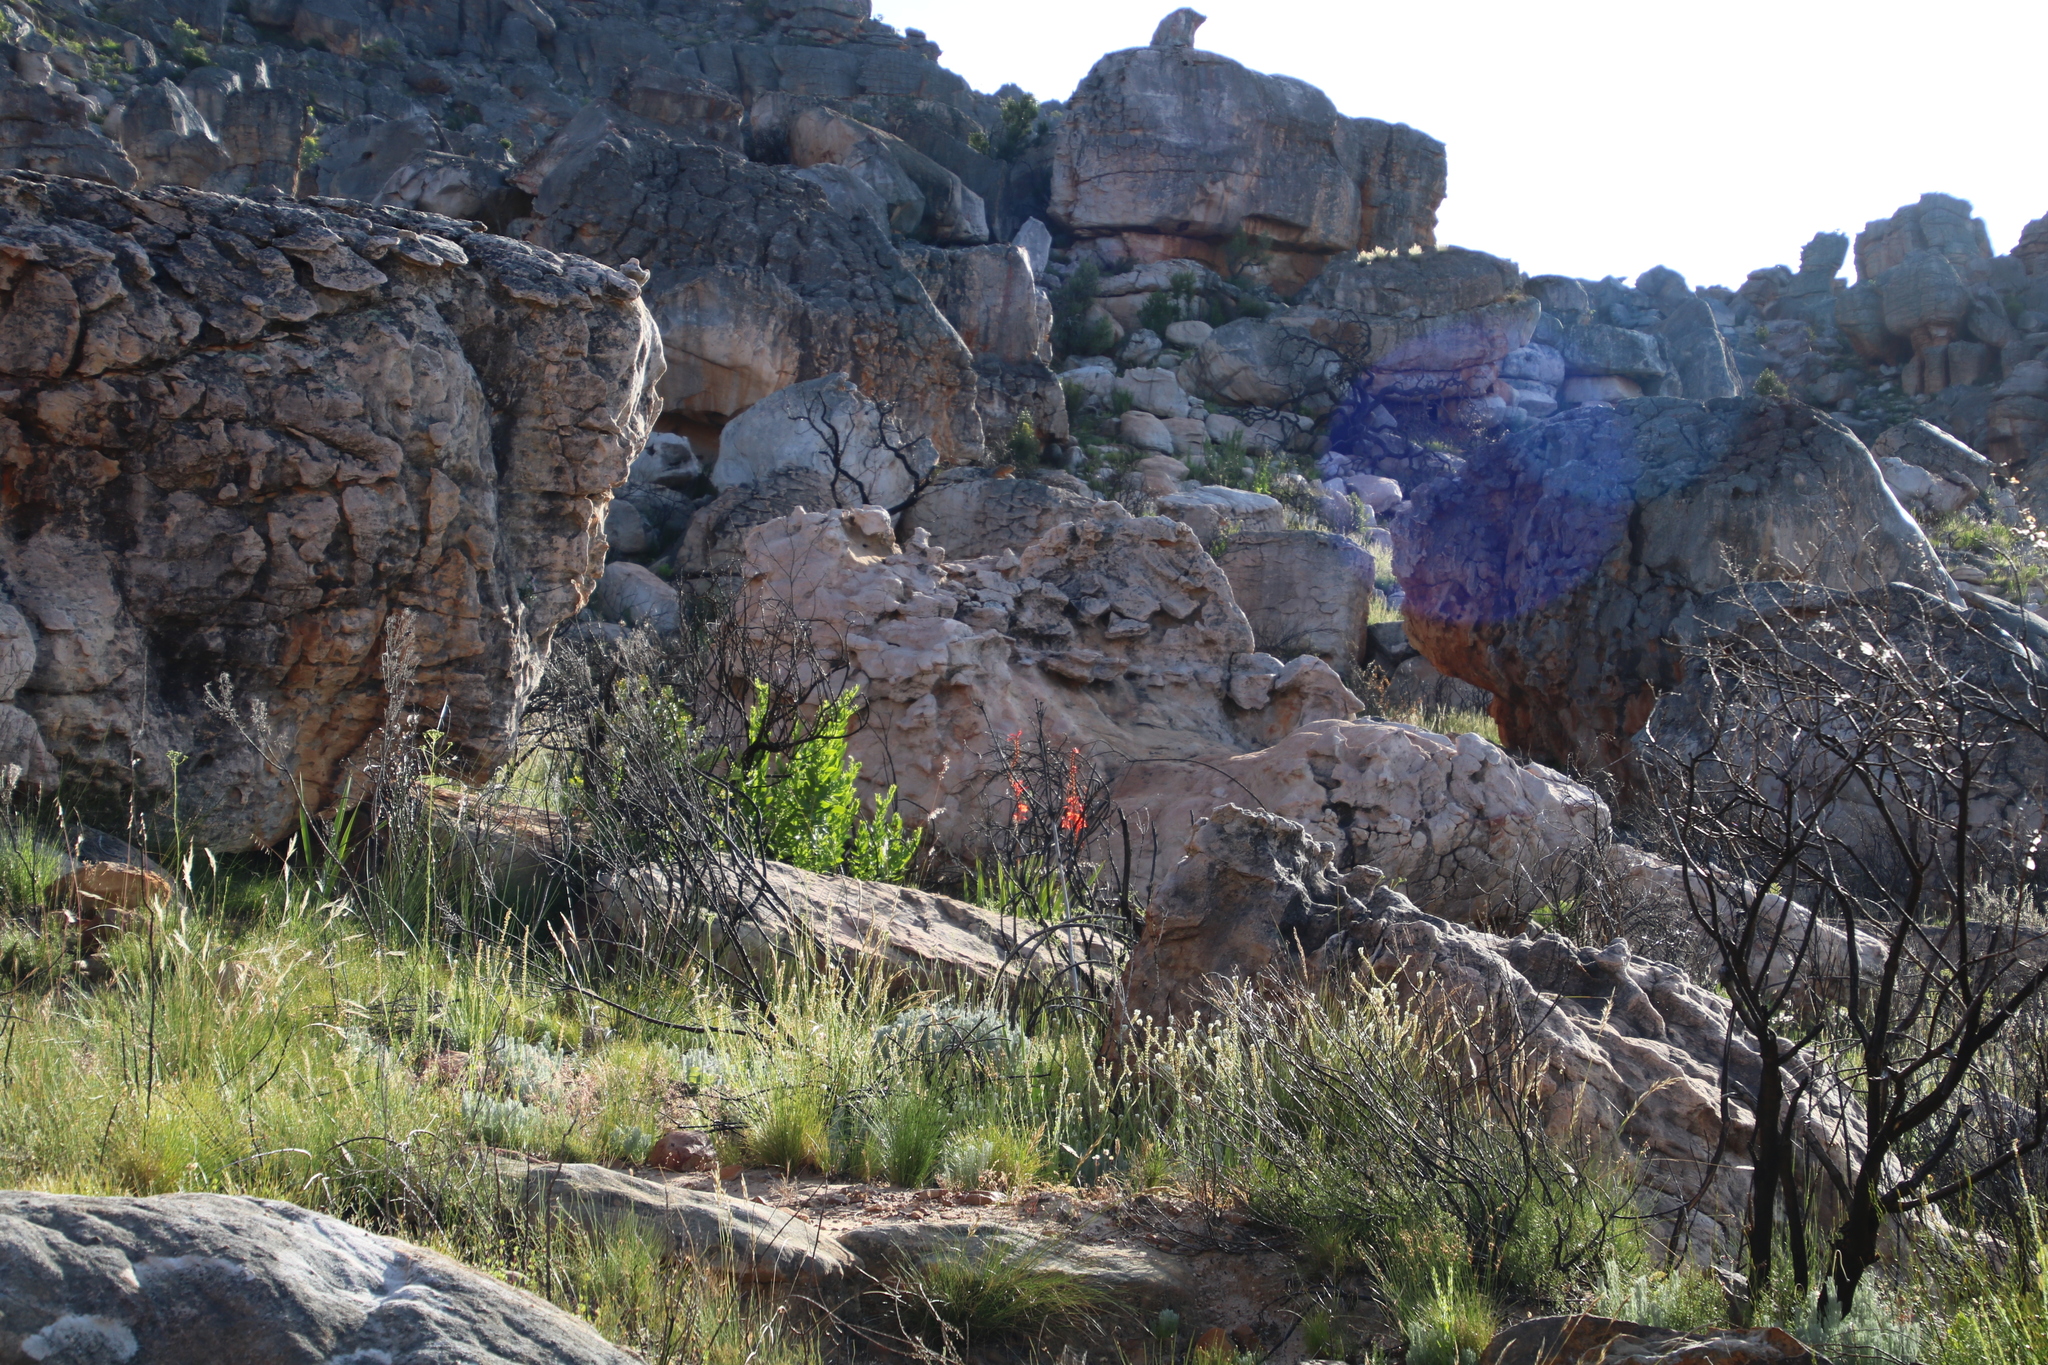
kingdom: Plantae
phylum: Tracheophyta
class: Liliopsida
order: Asparagales
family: Iridaceae
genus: Watsonia
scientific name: Watsonia angusta
